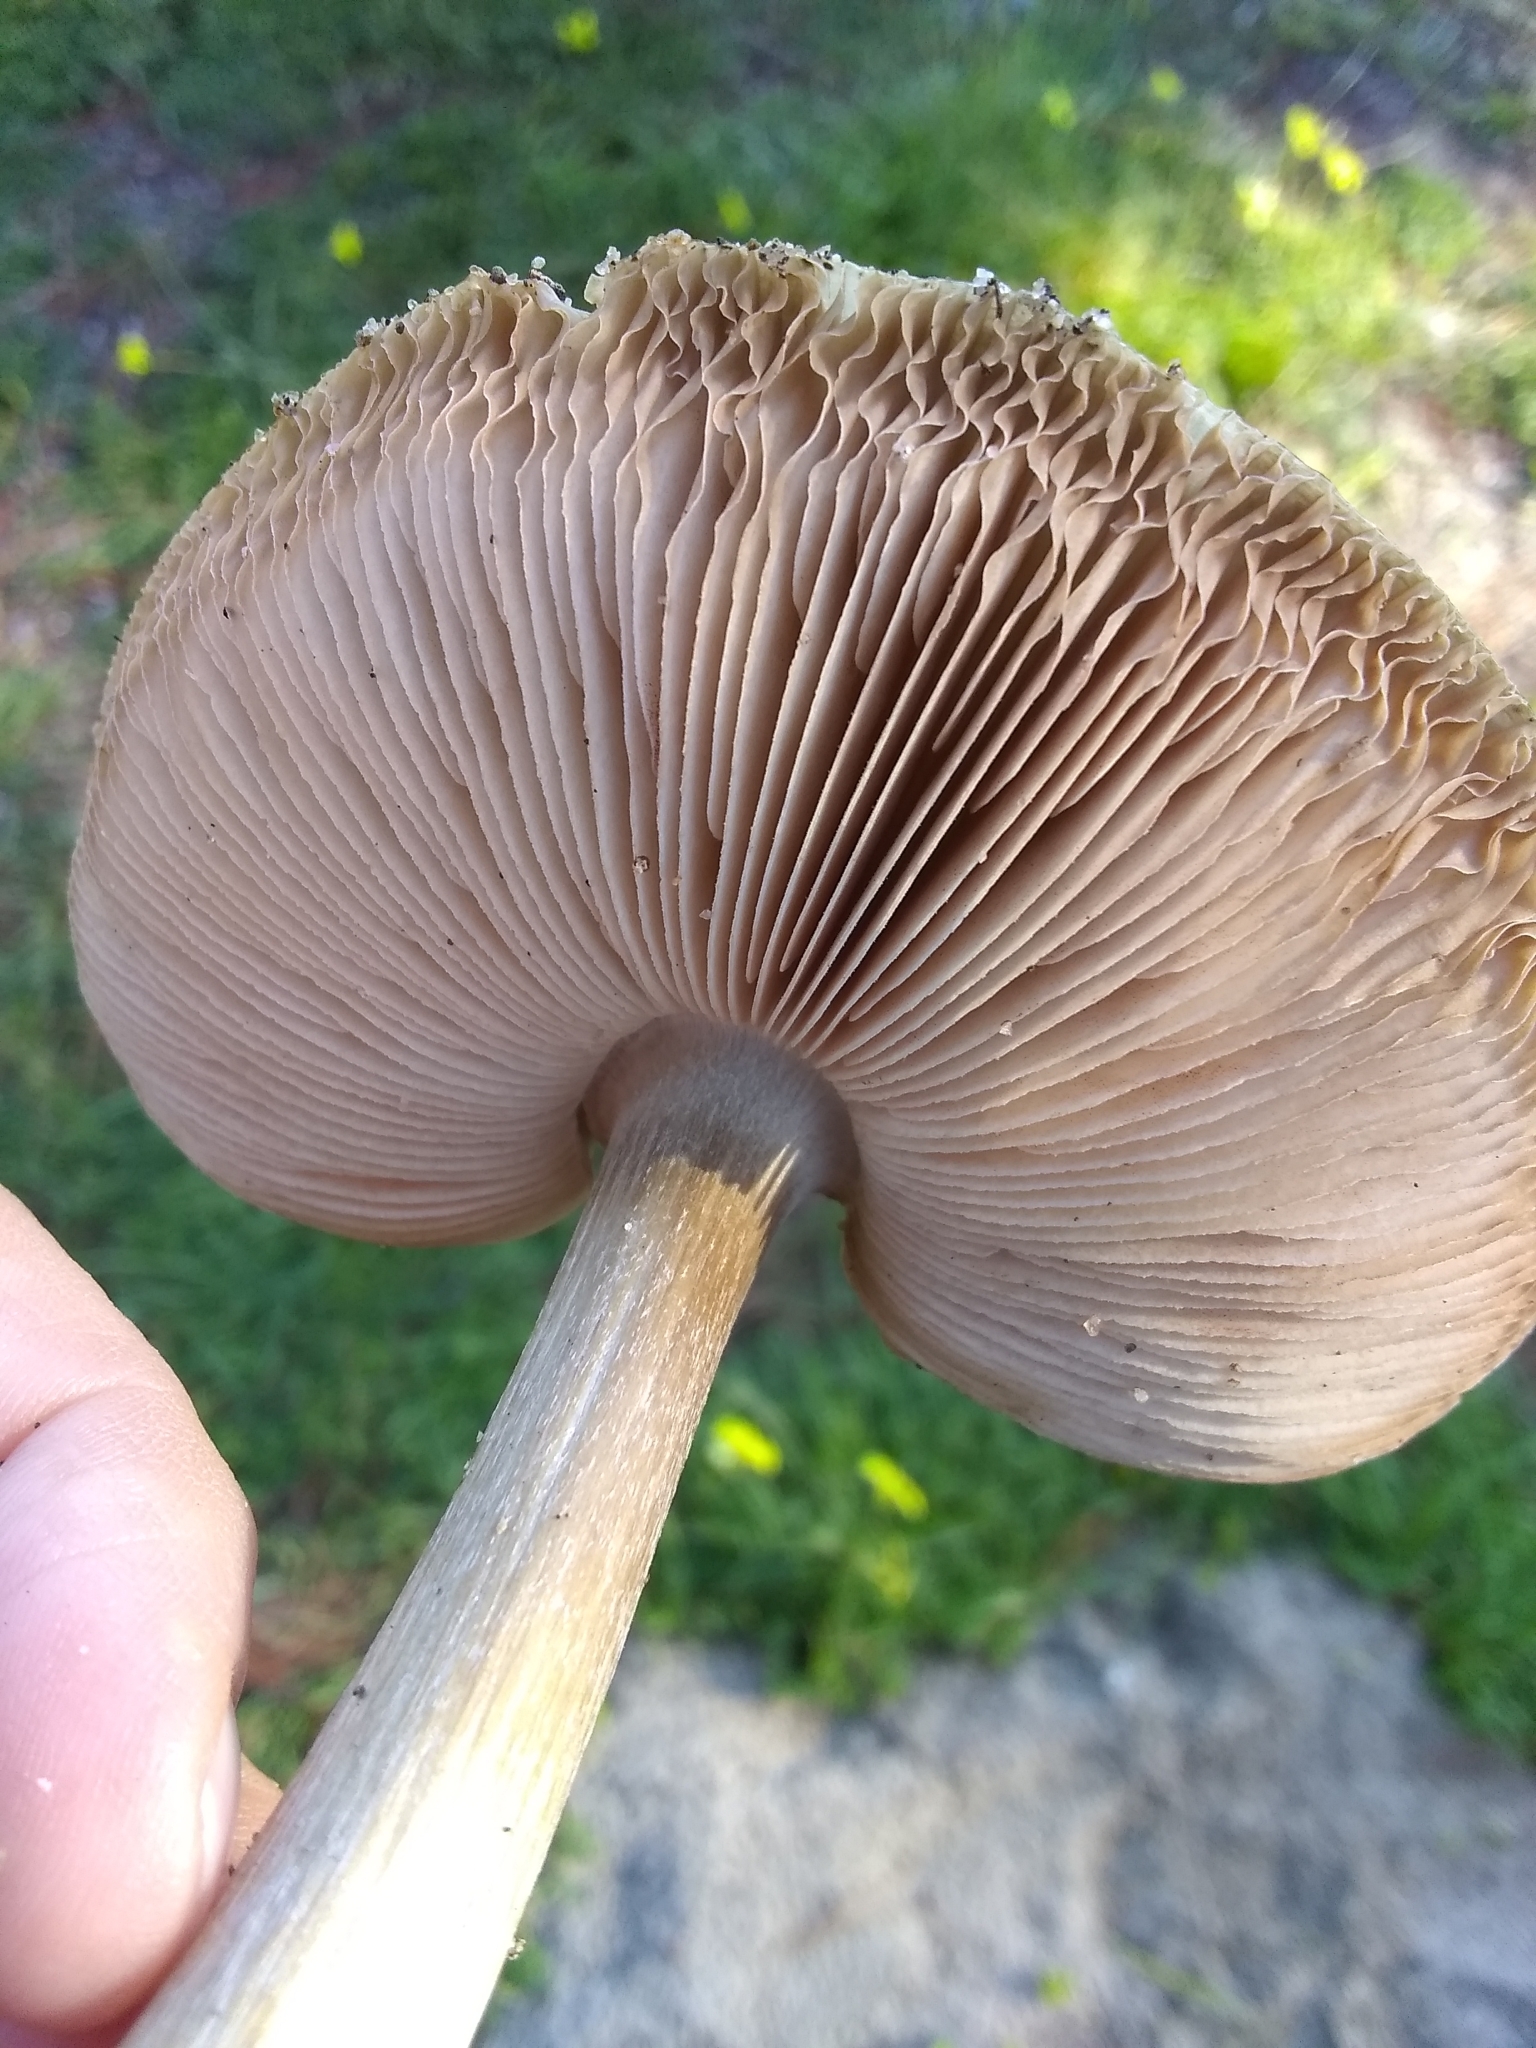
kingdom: Fungi
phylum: Basidiomycota
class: Agaricomycetes
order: Agaricales
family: Pluteaceae
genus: Volvopluteus
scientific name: Volvopluteus gloiocephalus
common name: Stubble rosegill
